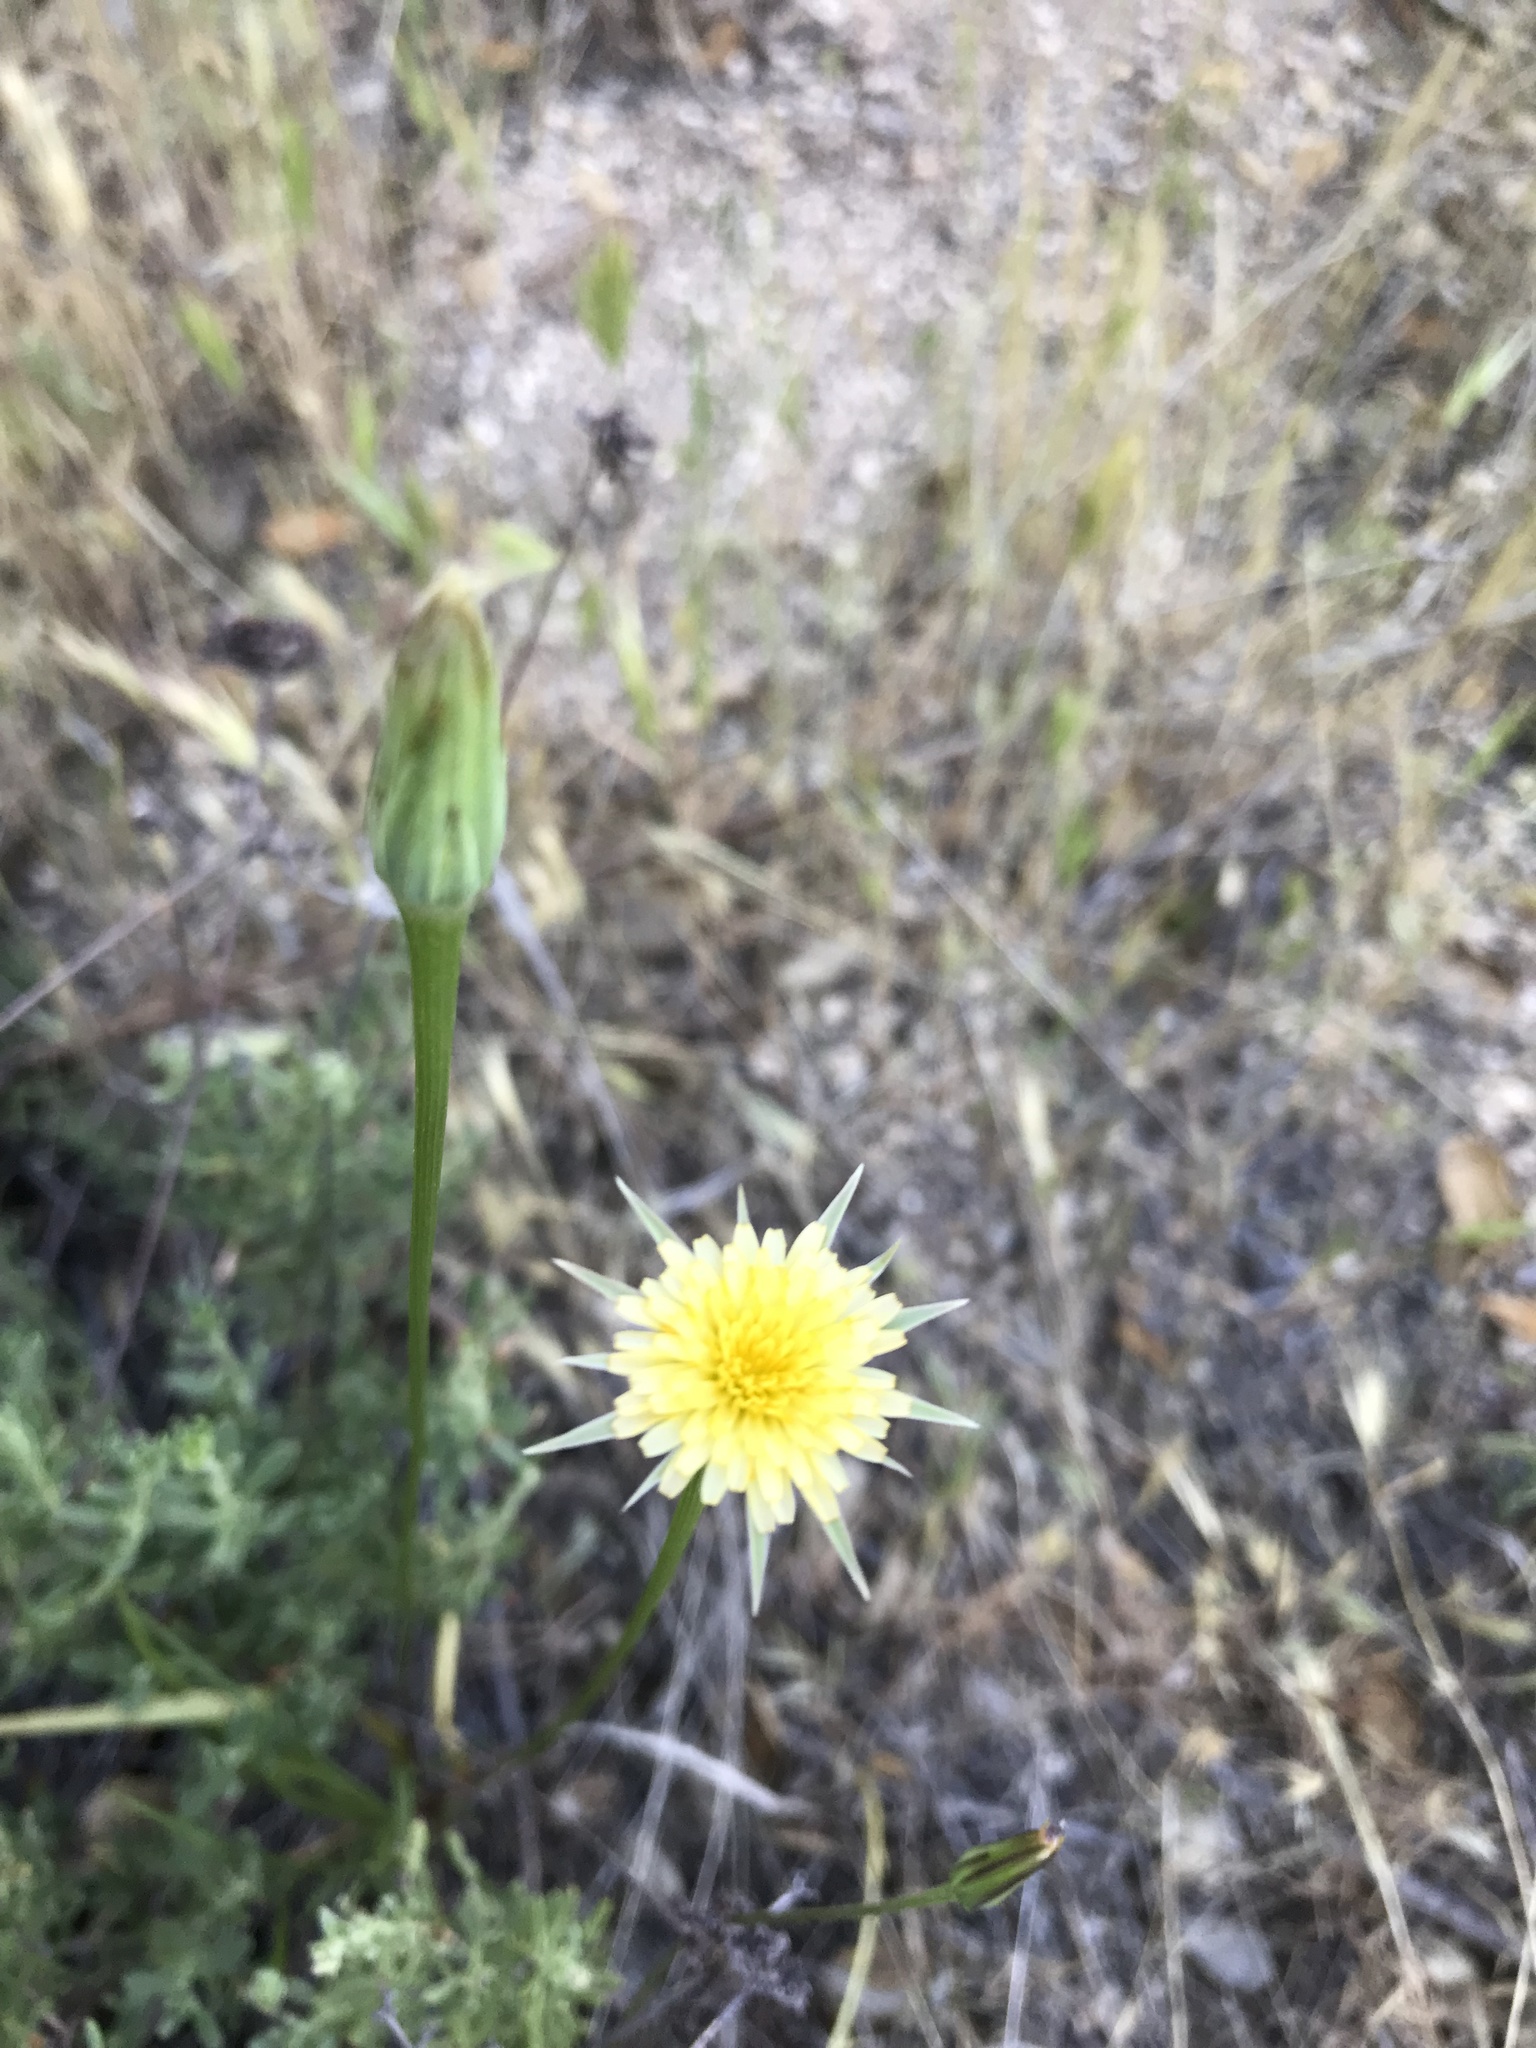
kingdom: Plantae
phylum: Tracheophyta
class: Magnoliopsida
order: Asterales
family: Asteraceae
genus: Microseris
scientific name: Microseris lindleyi
